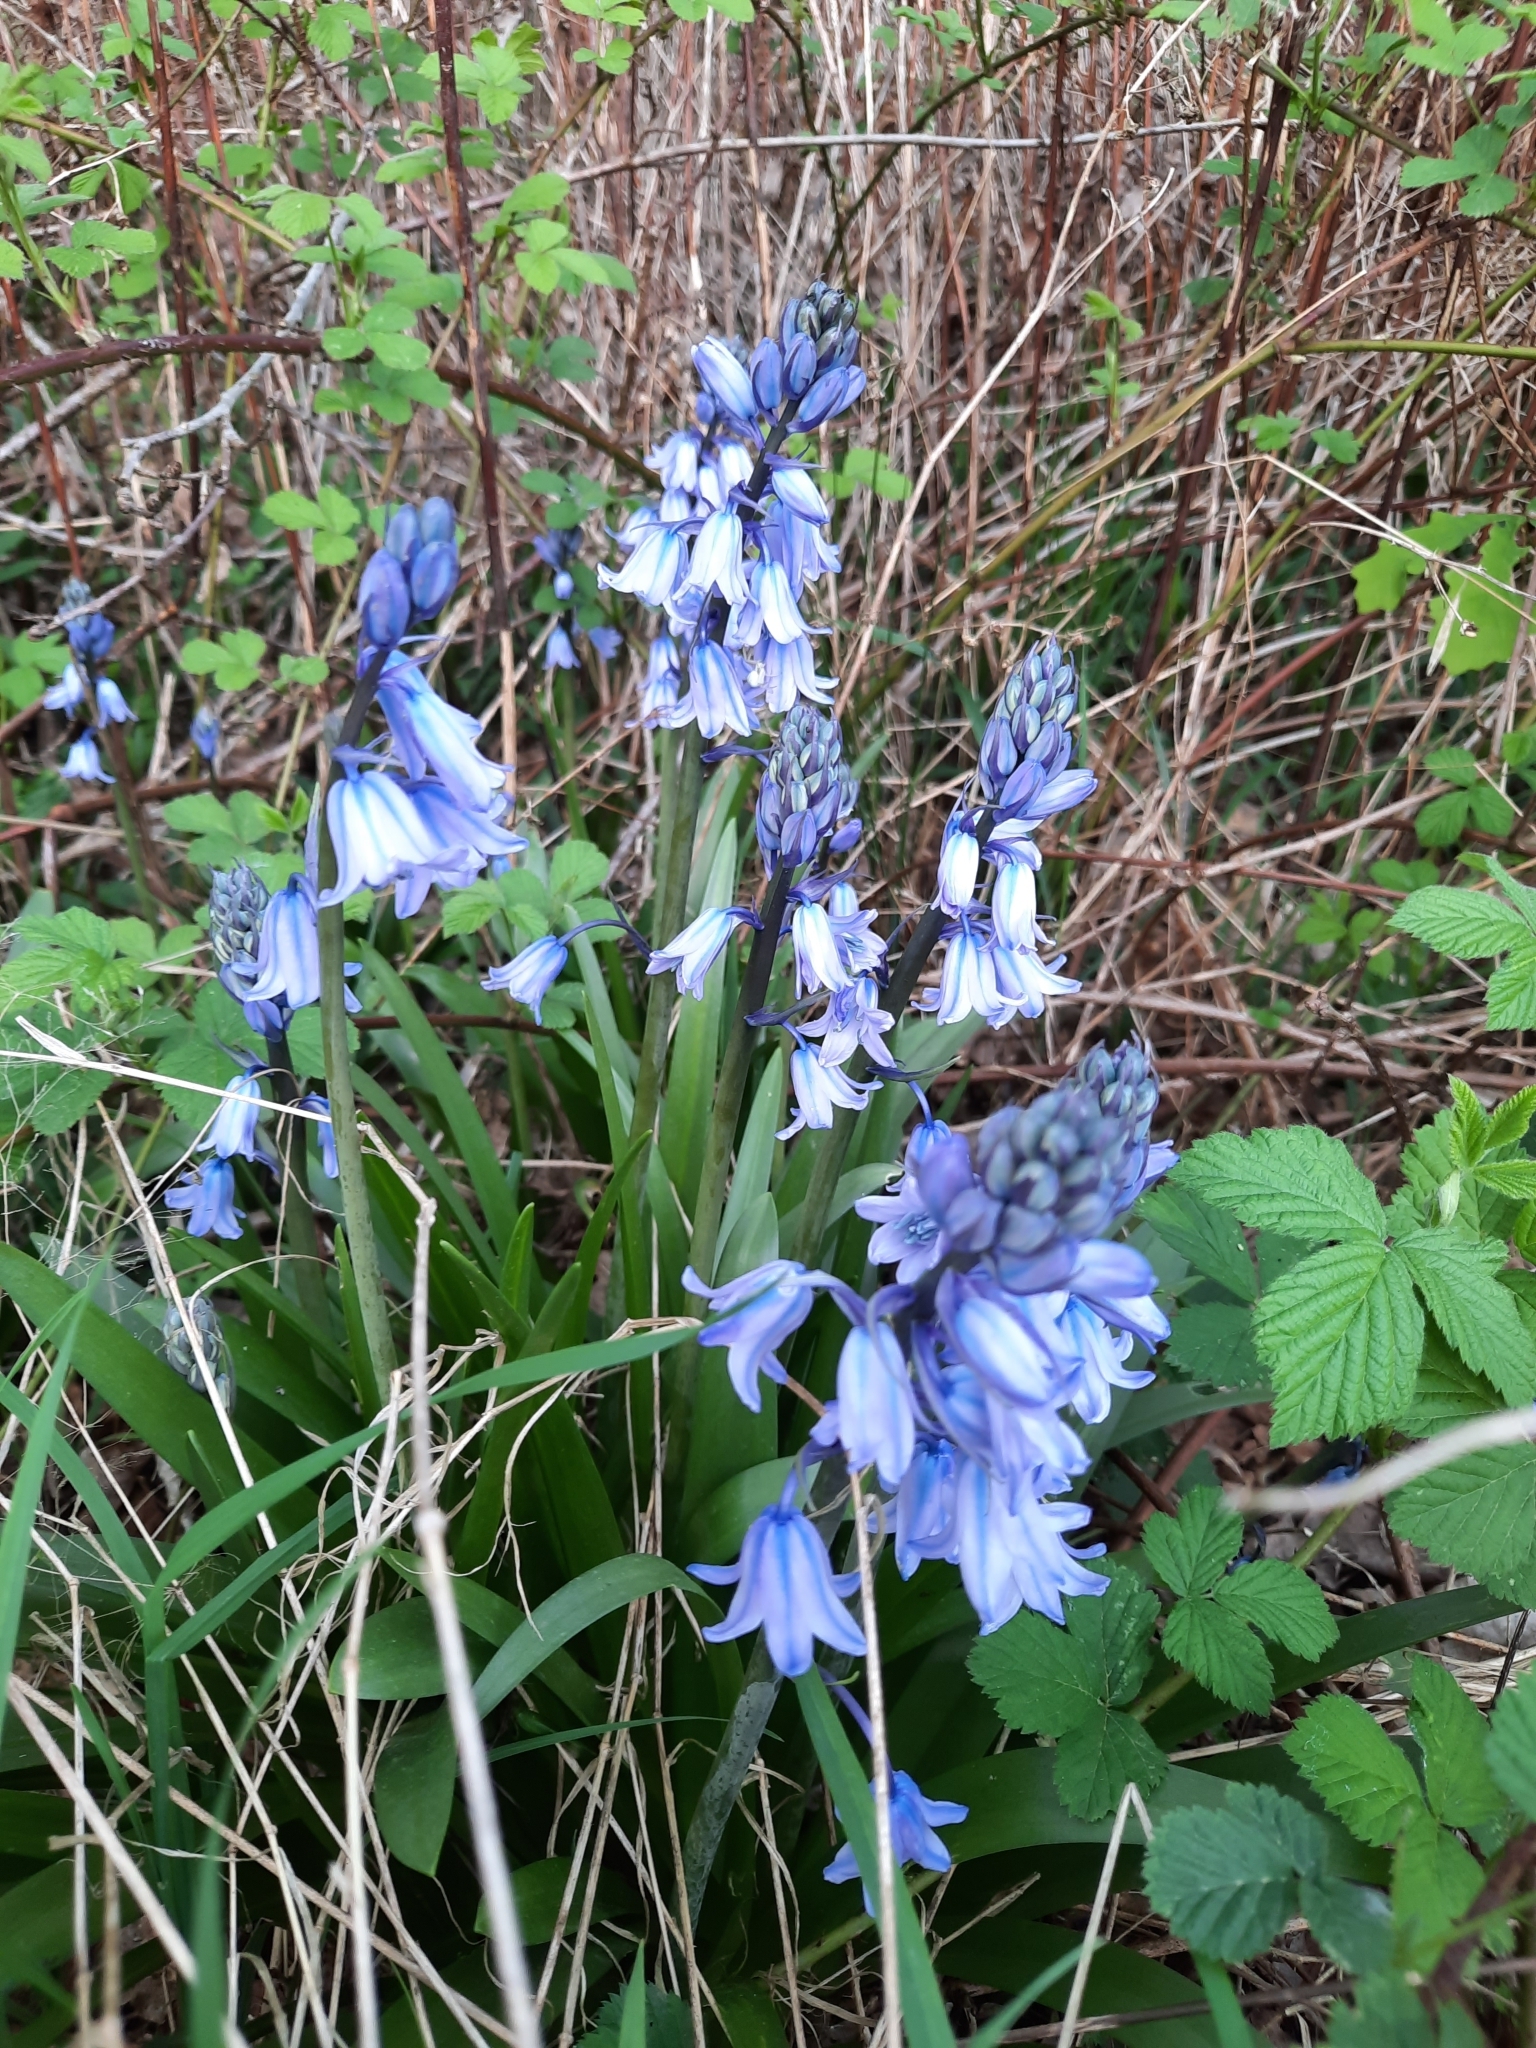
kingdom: Plantae
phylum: Tracheophyta
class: Liliopsida
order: Asparagales
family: Asparagaceae
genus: Hyacinthoides
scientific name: Hyacinthoides massartiana
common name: Hyacinthoides
